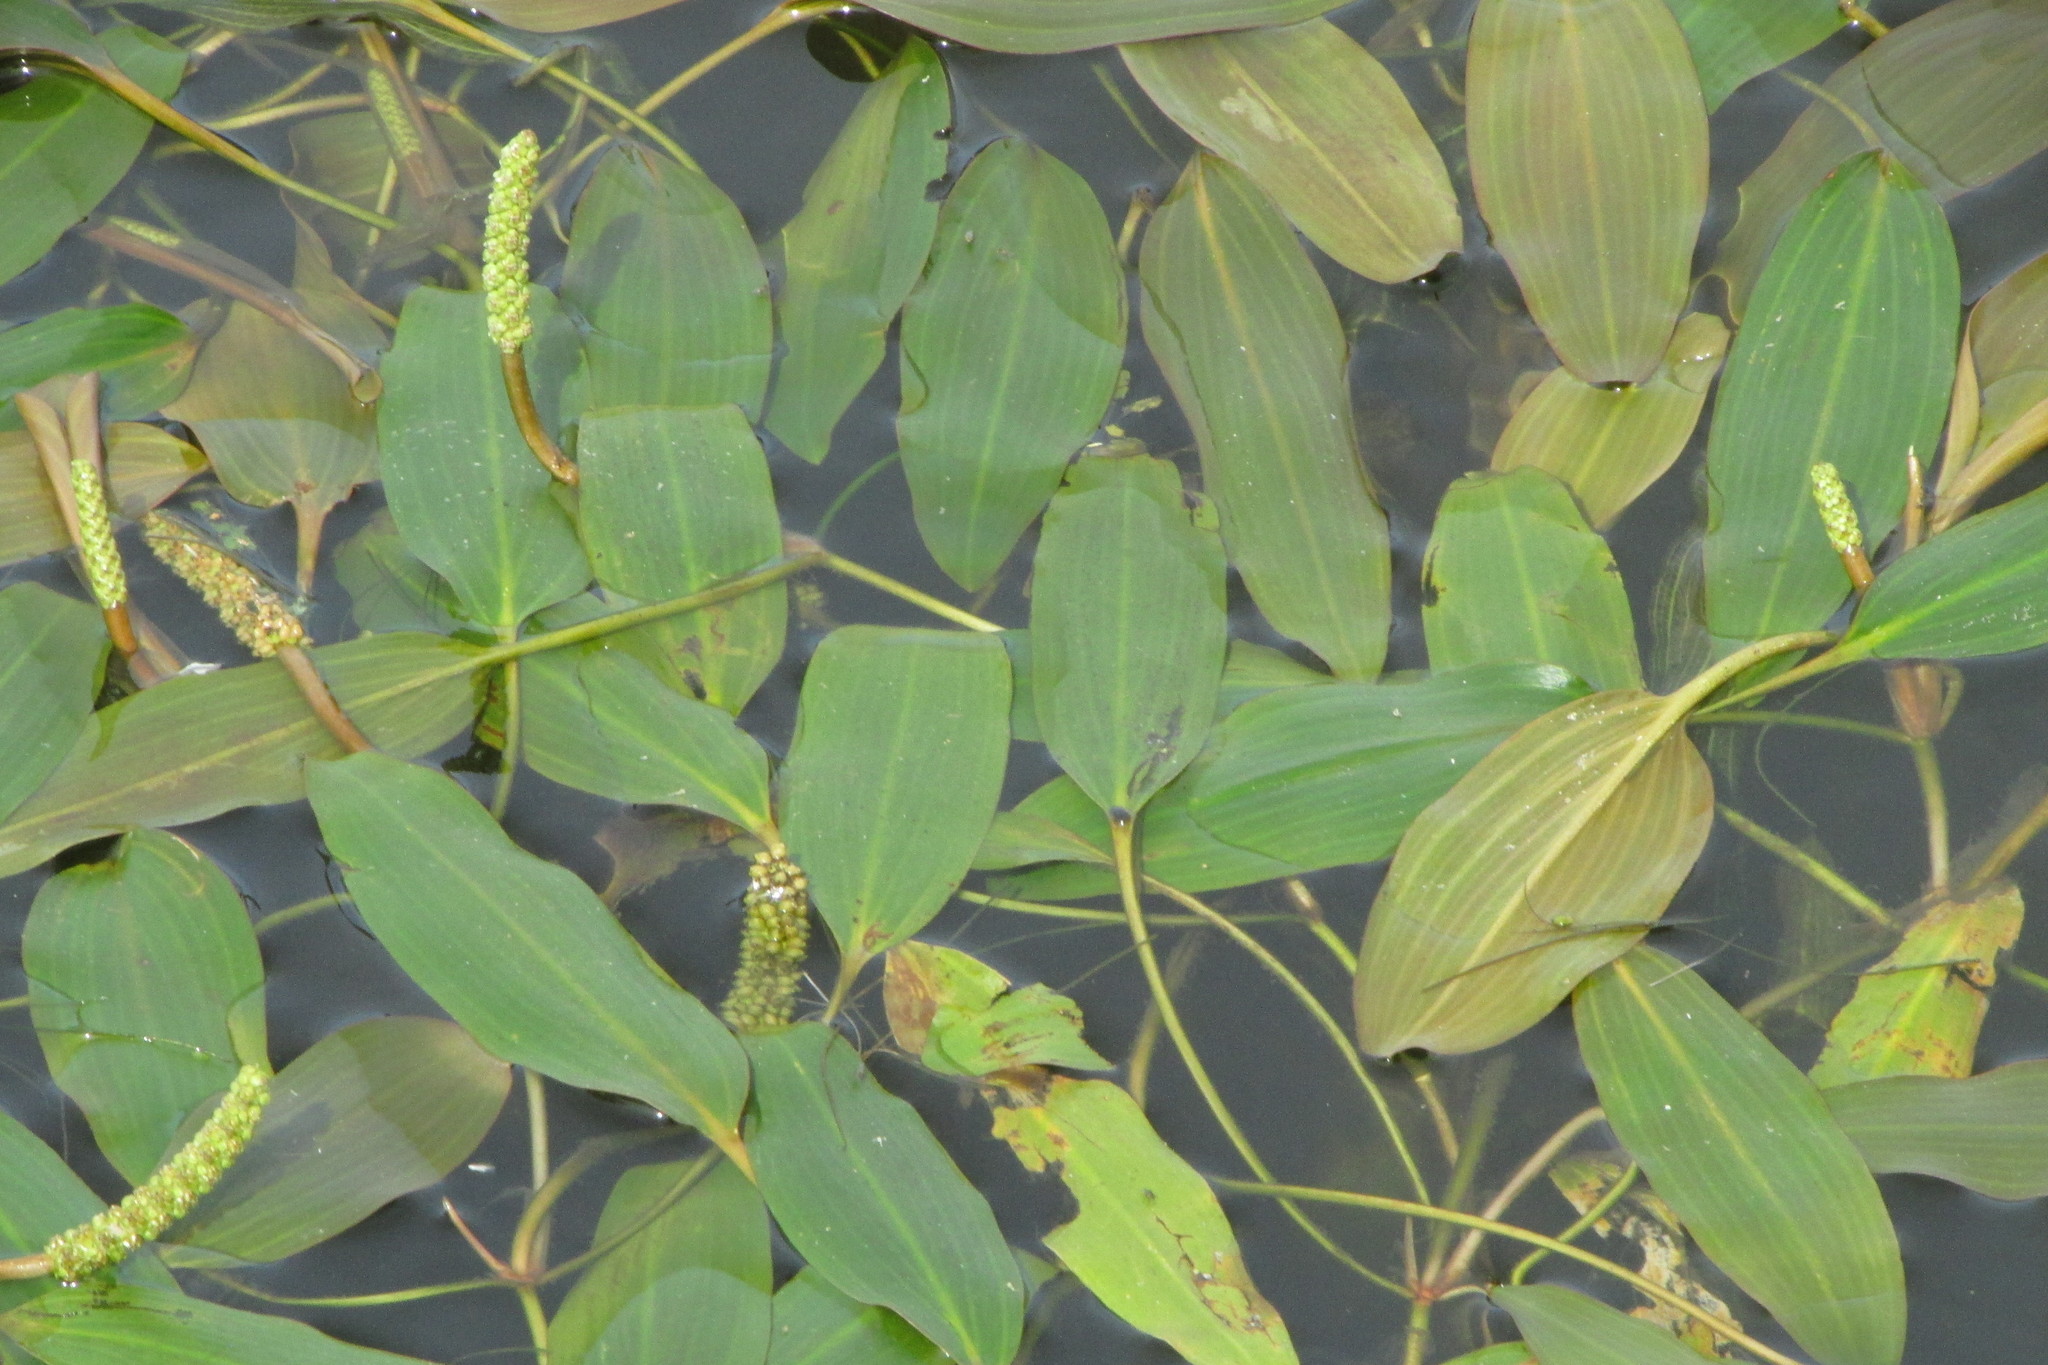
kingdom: Plantae
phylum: Tracheophyta
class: Liliopsida
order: Alismatales
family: Potamogetonaceae
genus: Potamogeton
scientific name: Potamogeton nodosus
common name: Loddon pondweed
